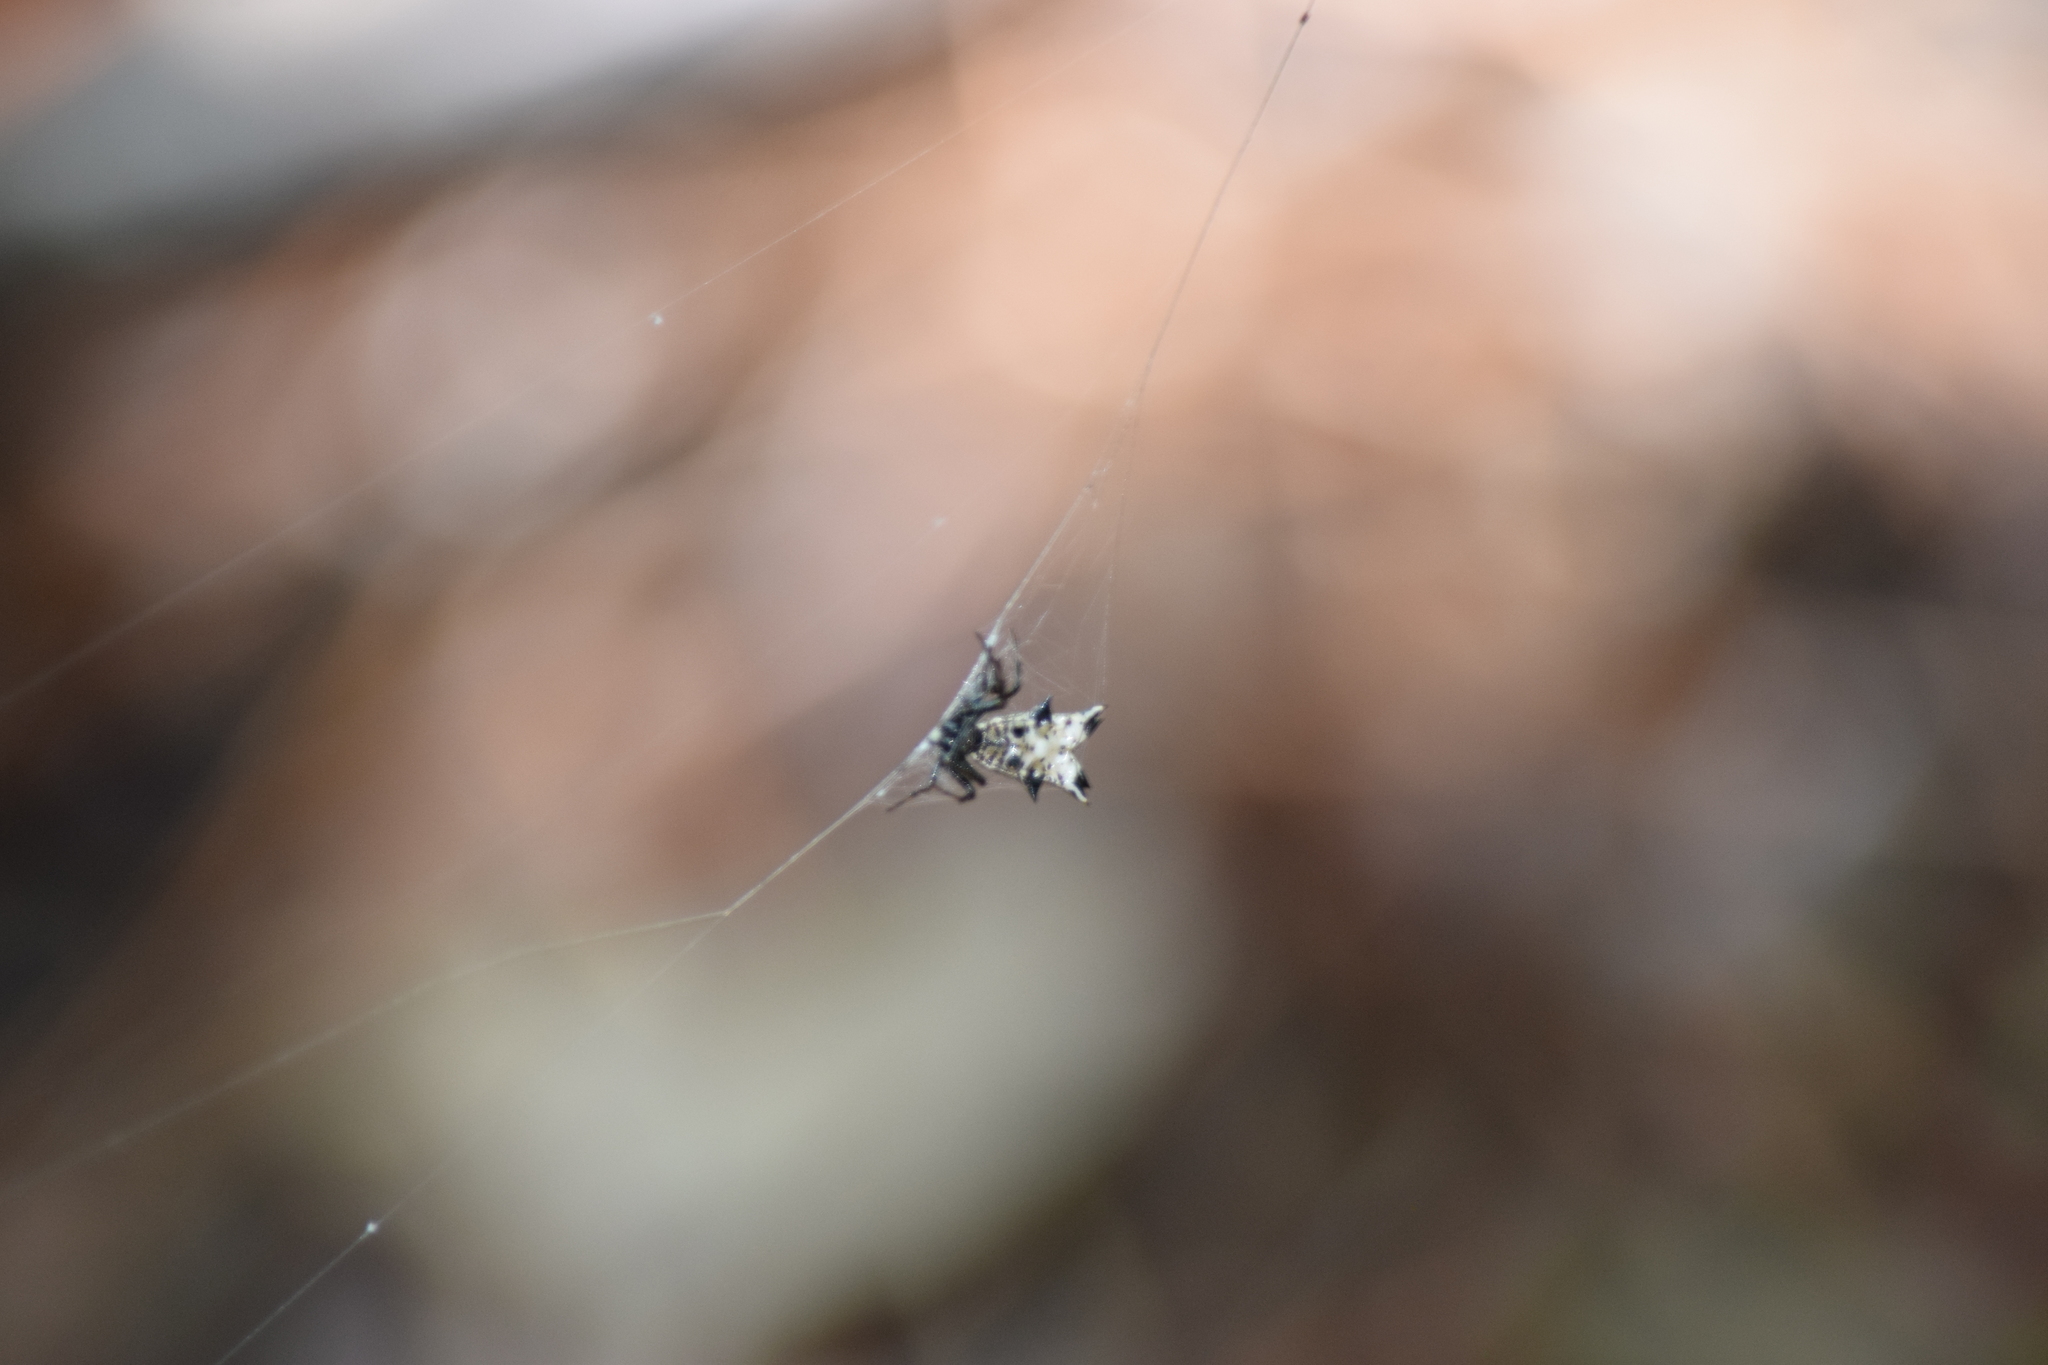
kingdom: Animalia
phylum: Arthropoda
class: Arachnida
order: Araneae
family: Araneidae
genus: Micrathena
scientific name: Micrathena gracilis
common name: Orb weavers
